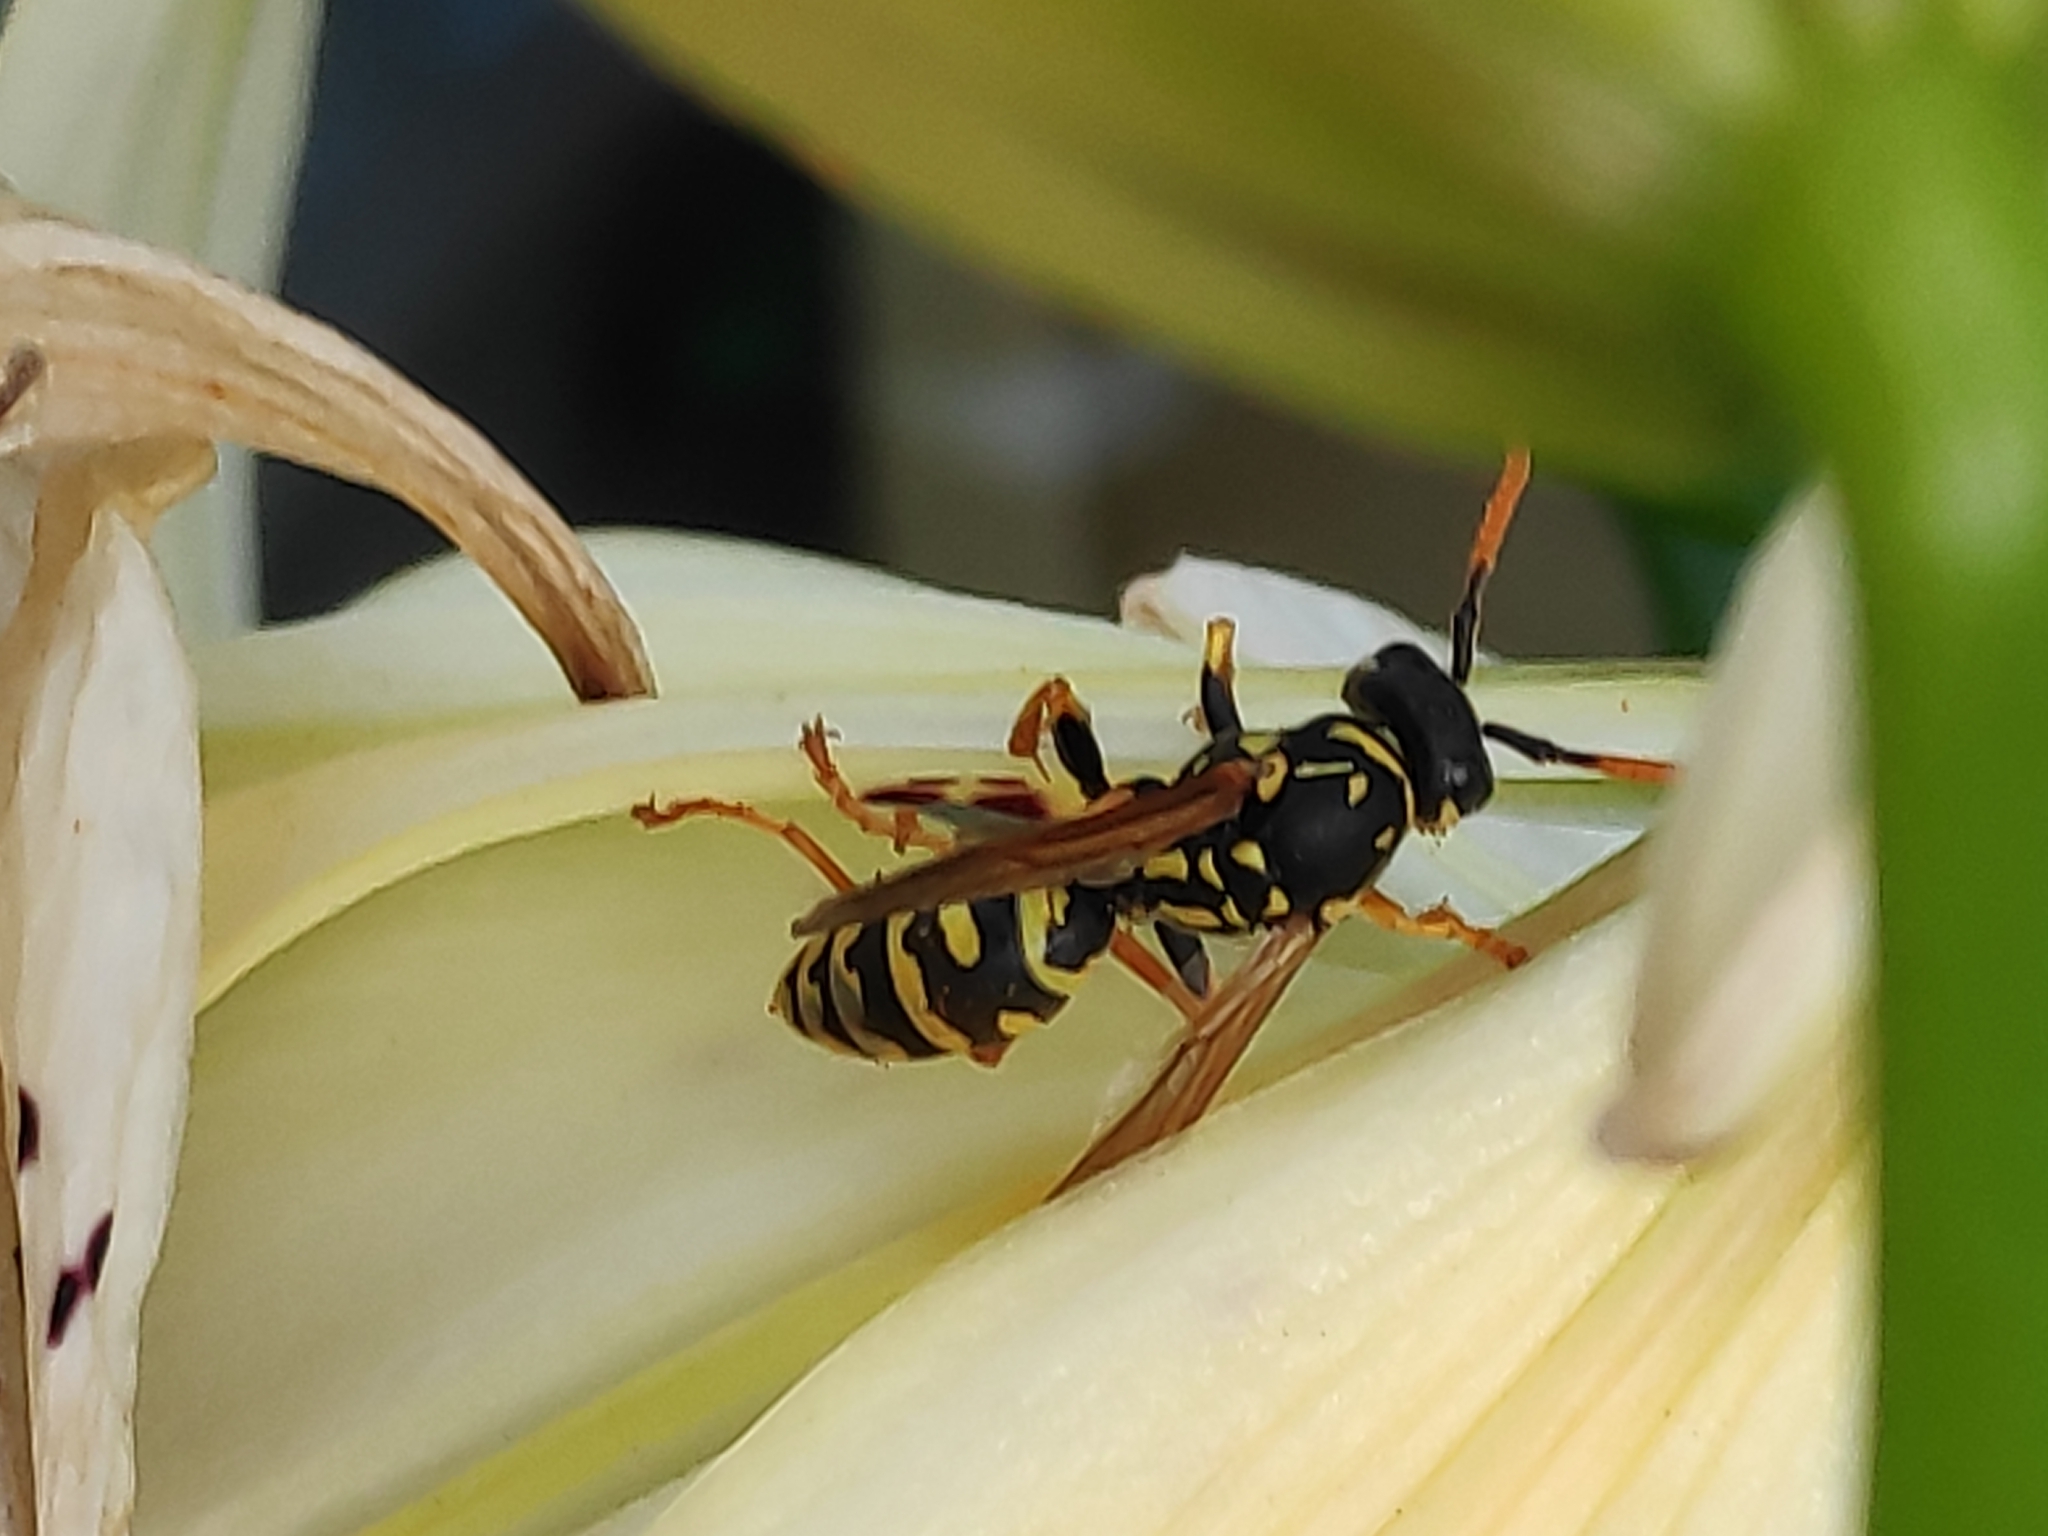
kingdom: Animalia
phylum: Arthropoda
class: Insecta
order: Hymenoptera
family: Eumenidae
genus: Polistes
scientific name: Polistes dominula
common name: Paper wasp
